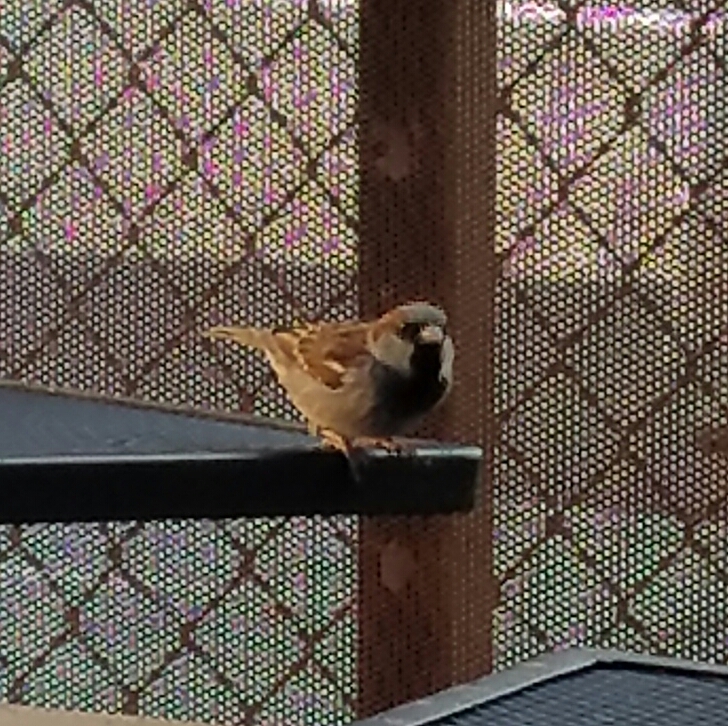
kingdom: Animalia
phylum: Chordata
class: Aves
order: Passeriformes
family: Passeridae
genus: Passer
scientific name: Passer domesticus
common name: House sparrow
